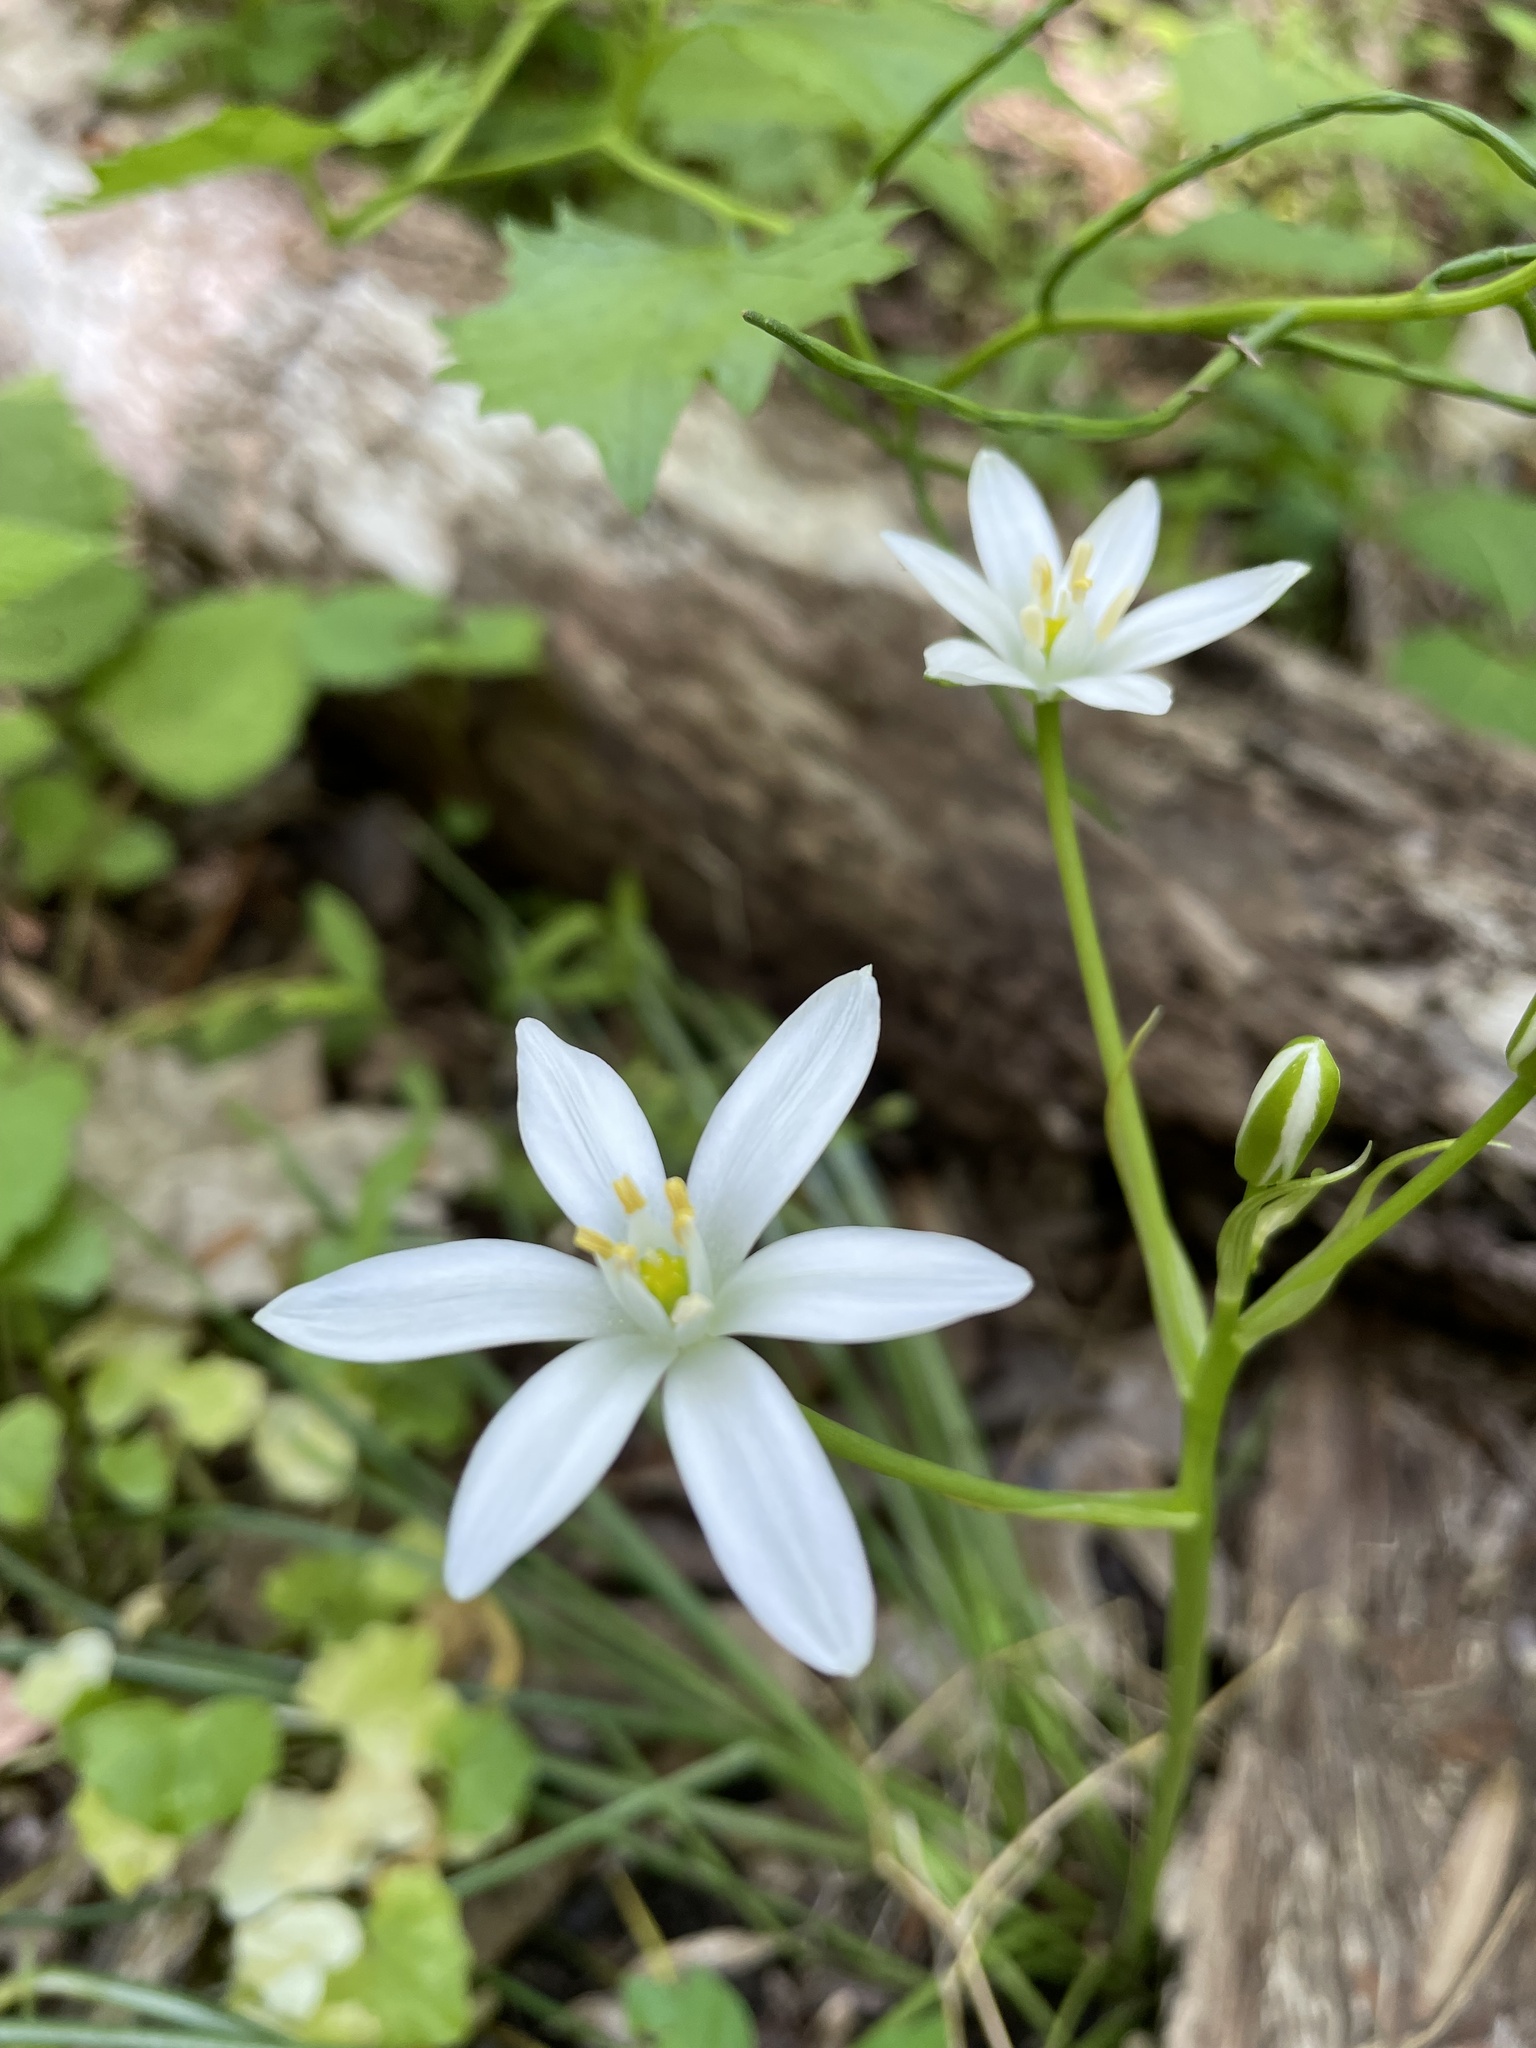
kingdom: Plantae
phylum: Tracheophyta
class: Liliopsida
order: Asparagales
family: Asparagaceae
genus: Ornithogalum
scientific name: Ornithogalum umbellatum
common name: Garden star-of-bethlehem
